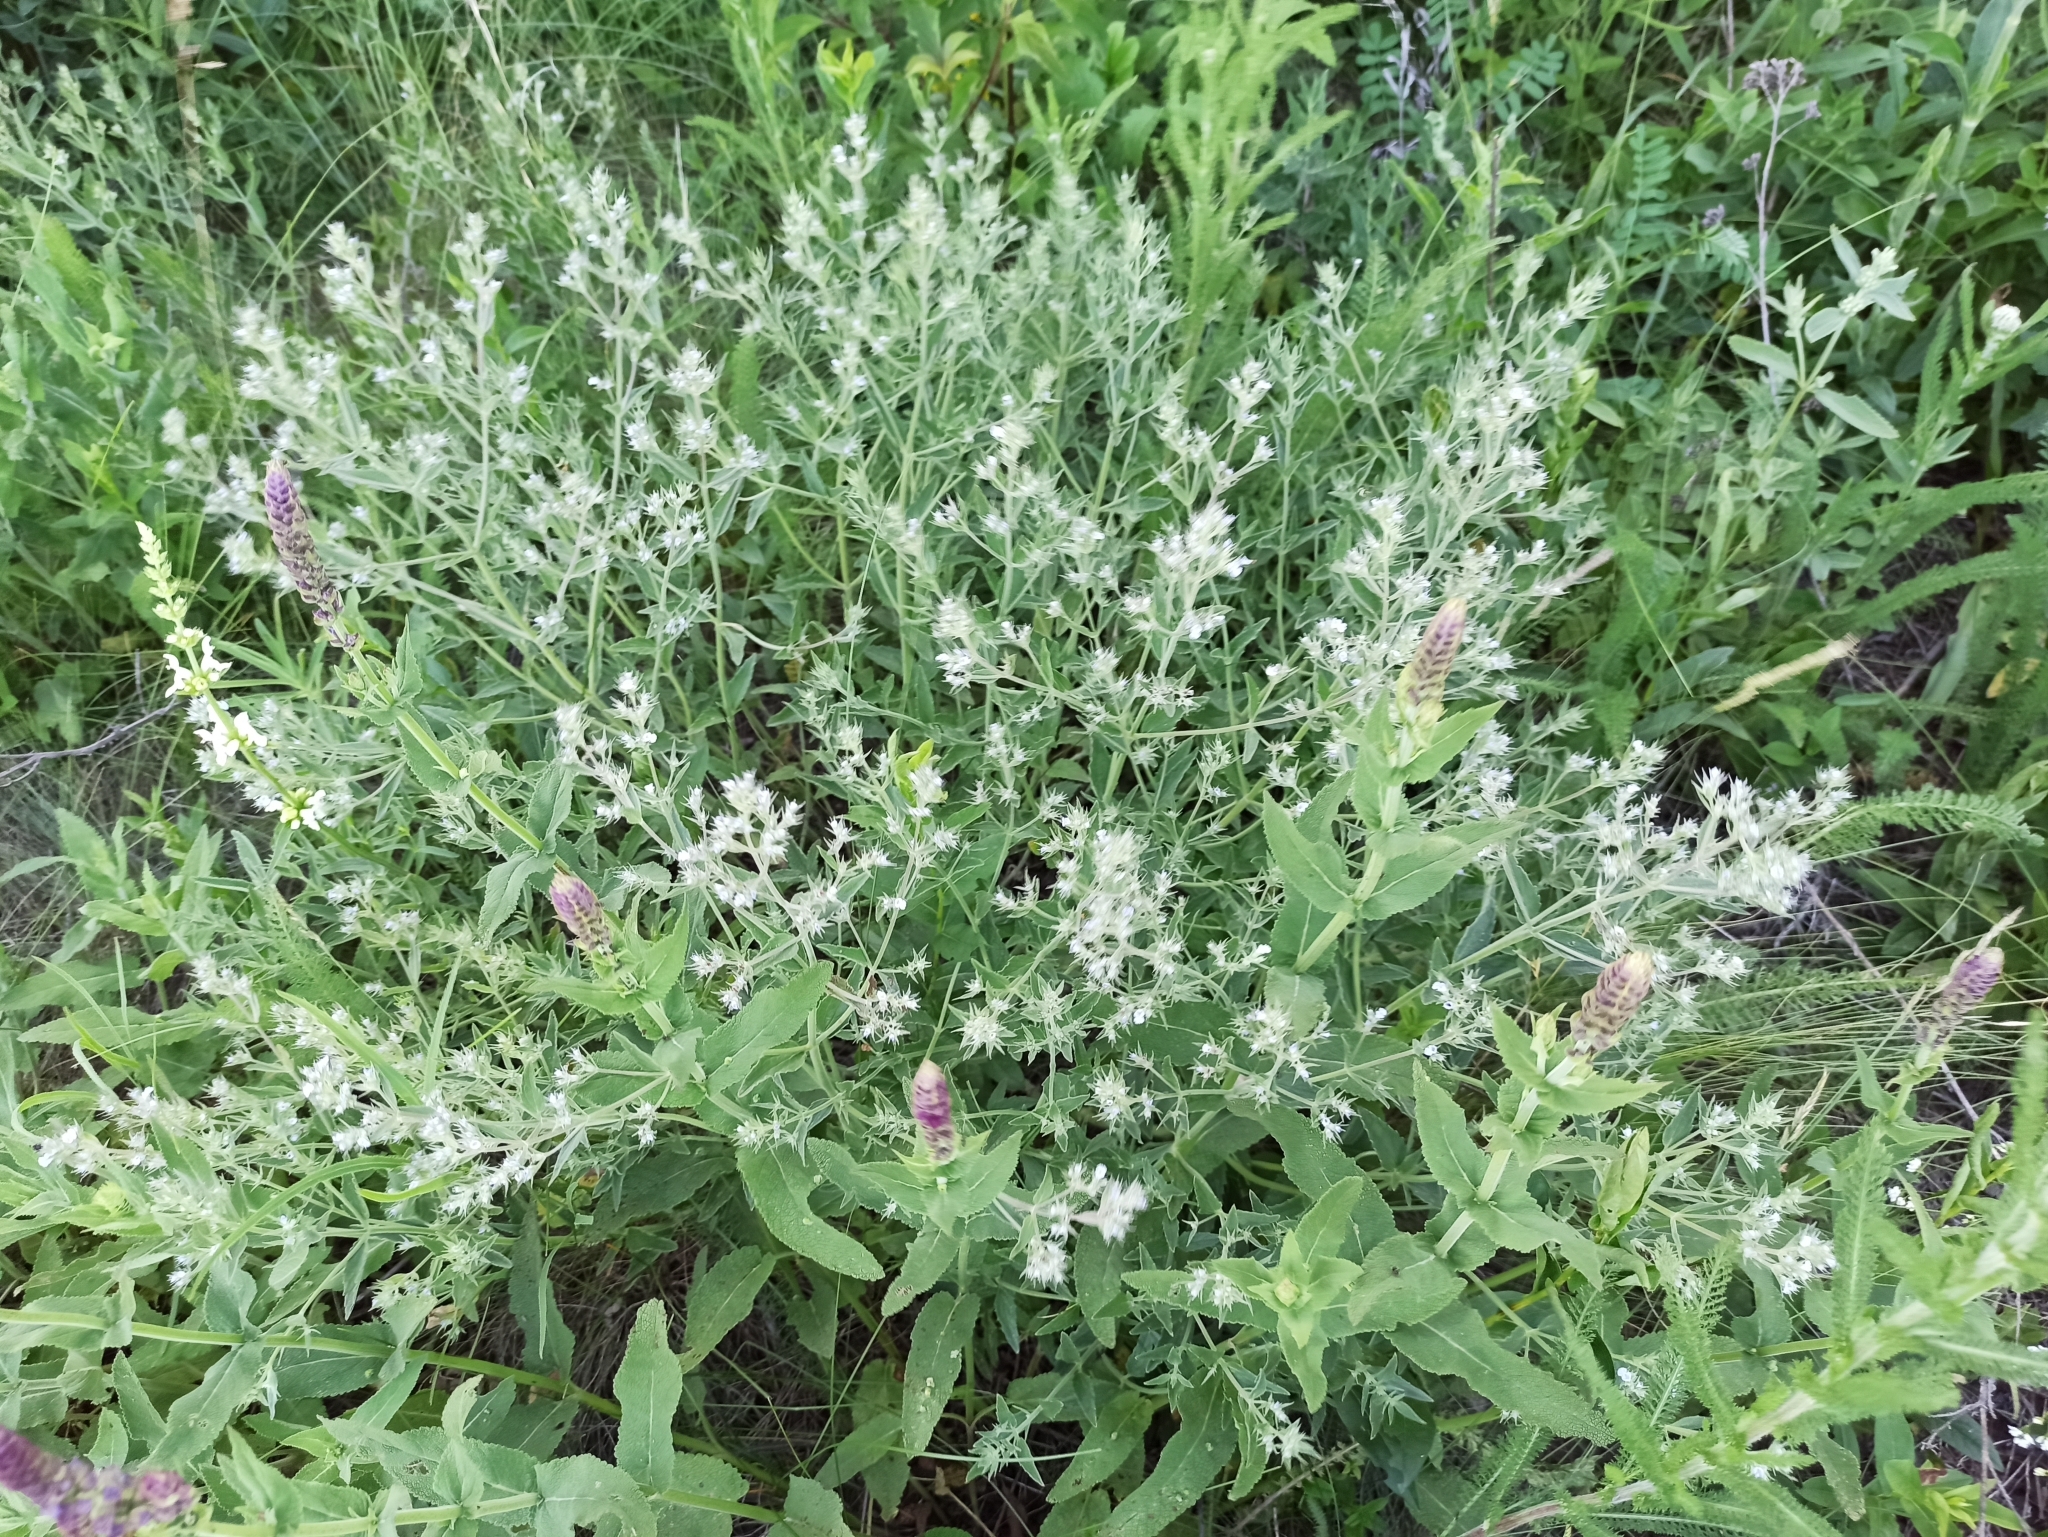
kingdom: Plantae
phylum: Tracheophyta
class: Magnoliopsida
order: Lamiales
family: Lamiaceae
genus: Nepeta
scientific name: Nepeta
